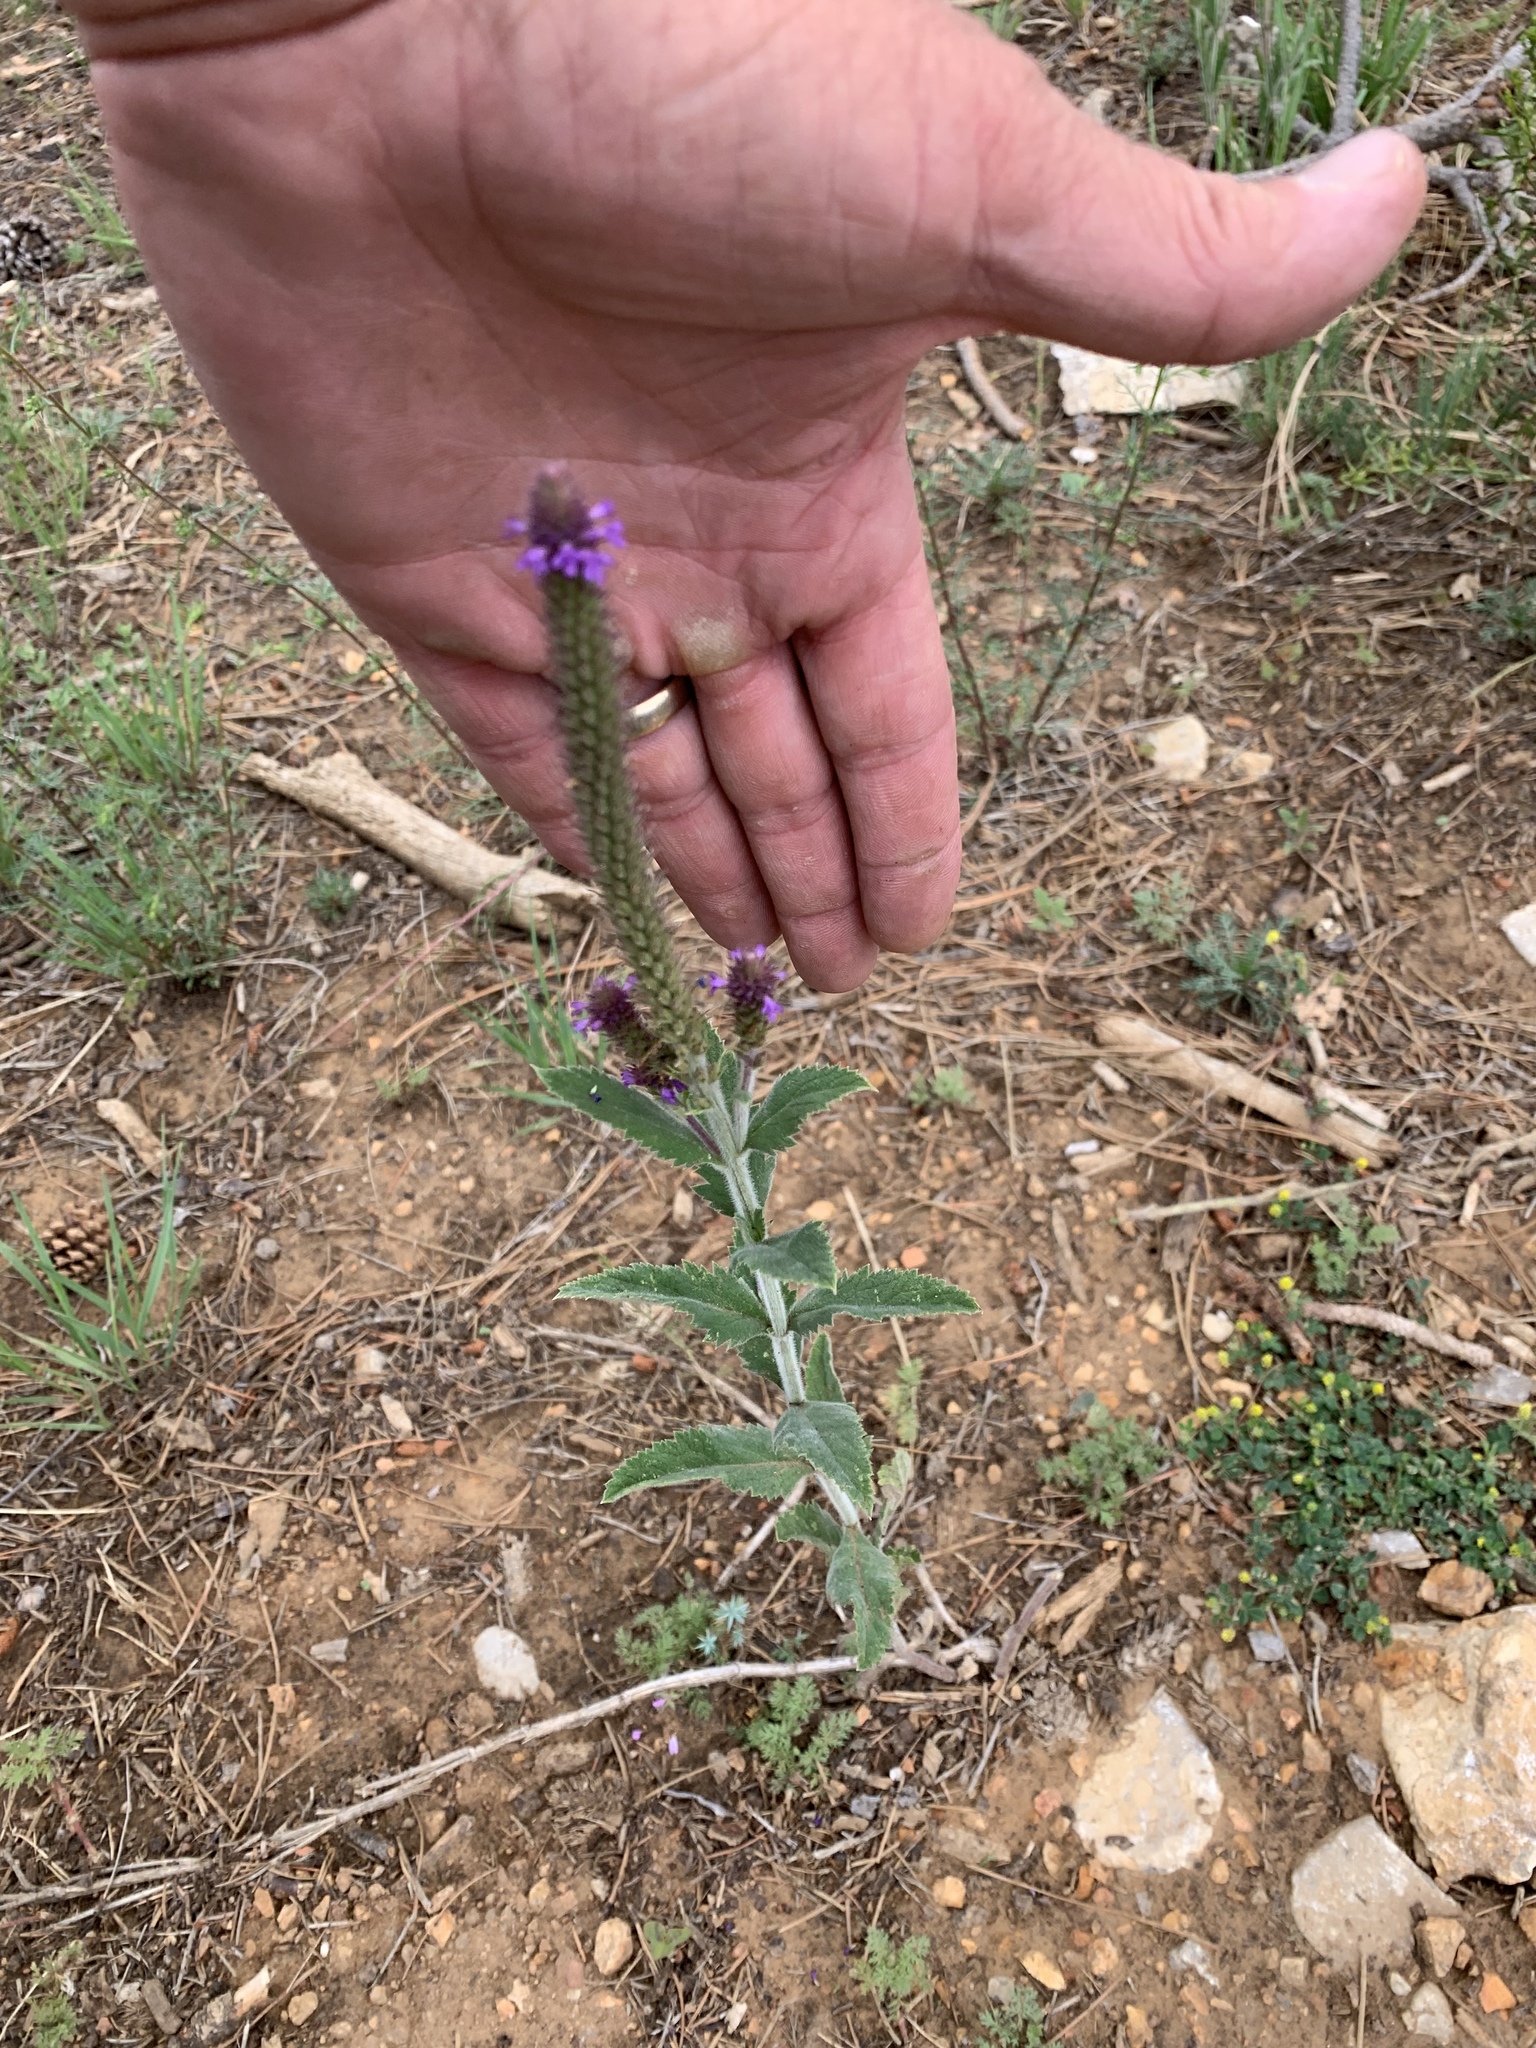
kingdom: Plantae
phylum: Tracheophyta
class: Magnoliopsida
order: Lamiales
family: Verbenaceae
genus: Verbena
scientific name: Verbena macdougalii
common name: New mexico vervain
